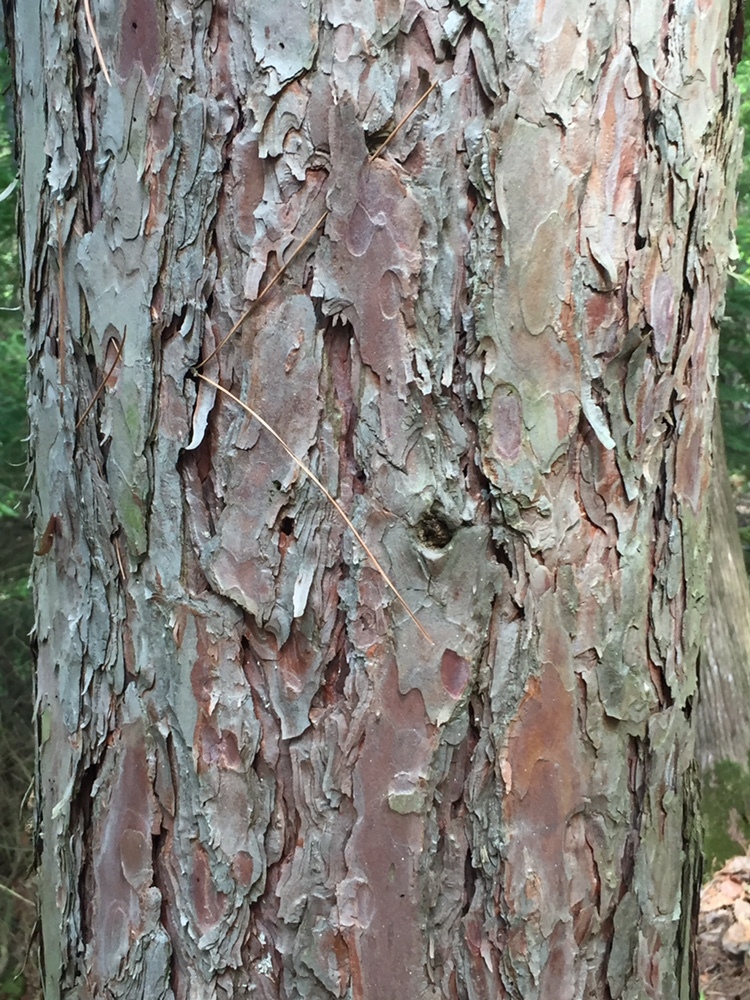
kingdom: Plantae
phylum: Tracheophyta
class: Pinopsida
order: Pinales
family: Pinaceae
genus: Pinus
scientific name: Pinus resinosa
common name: Norway pine
